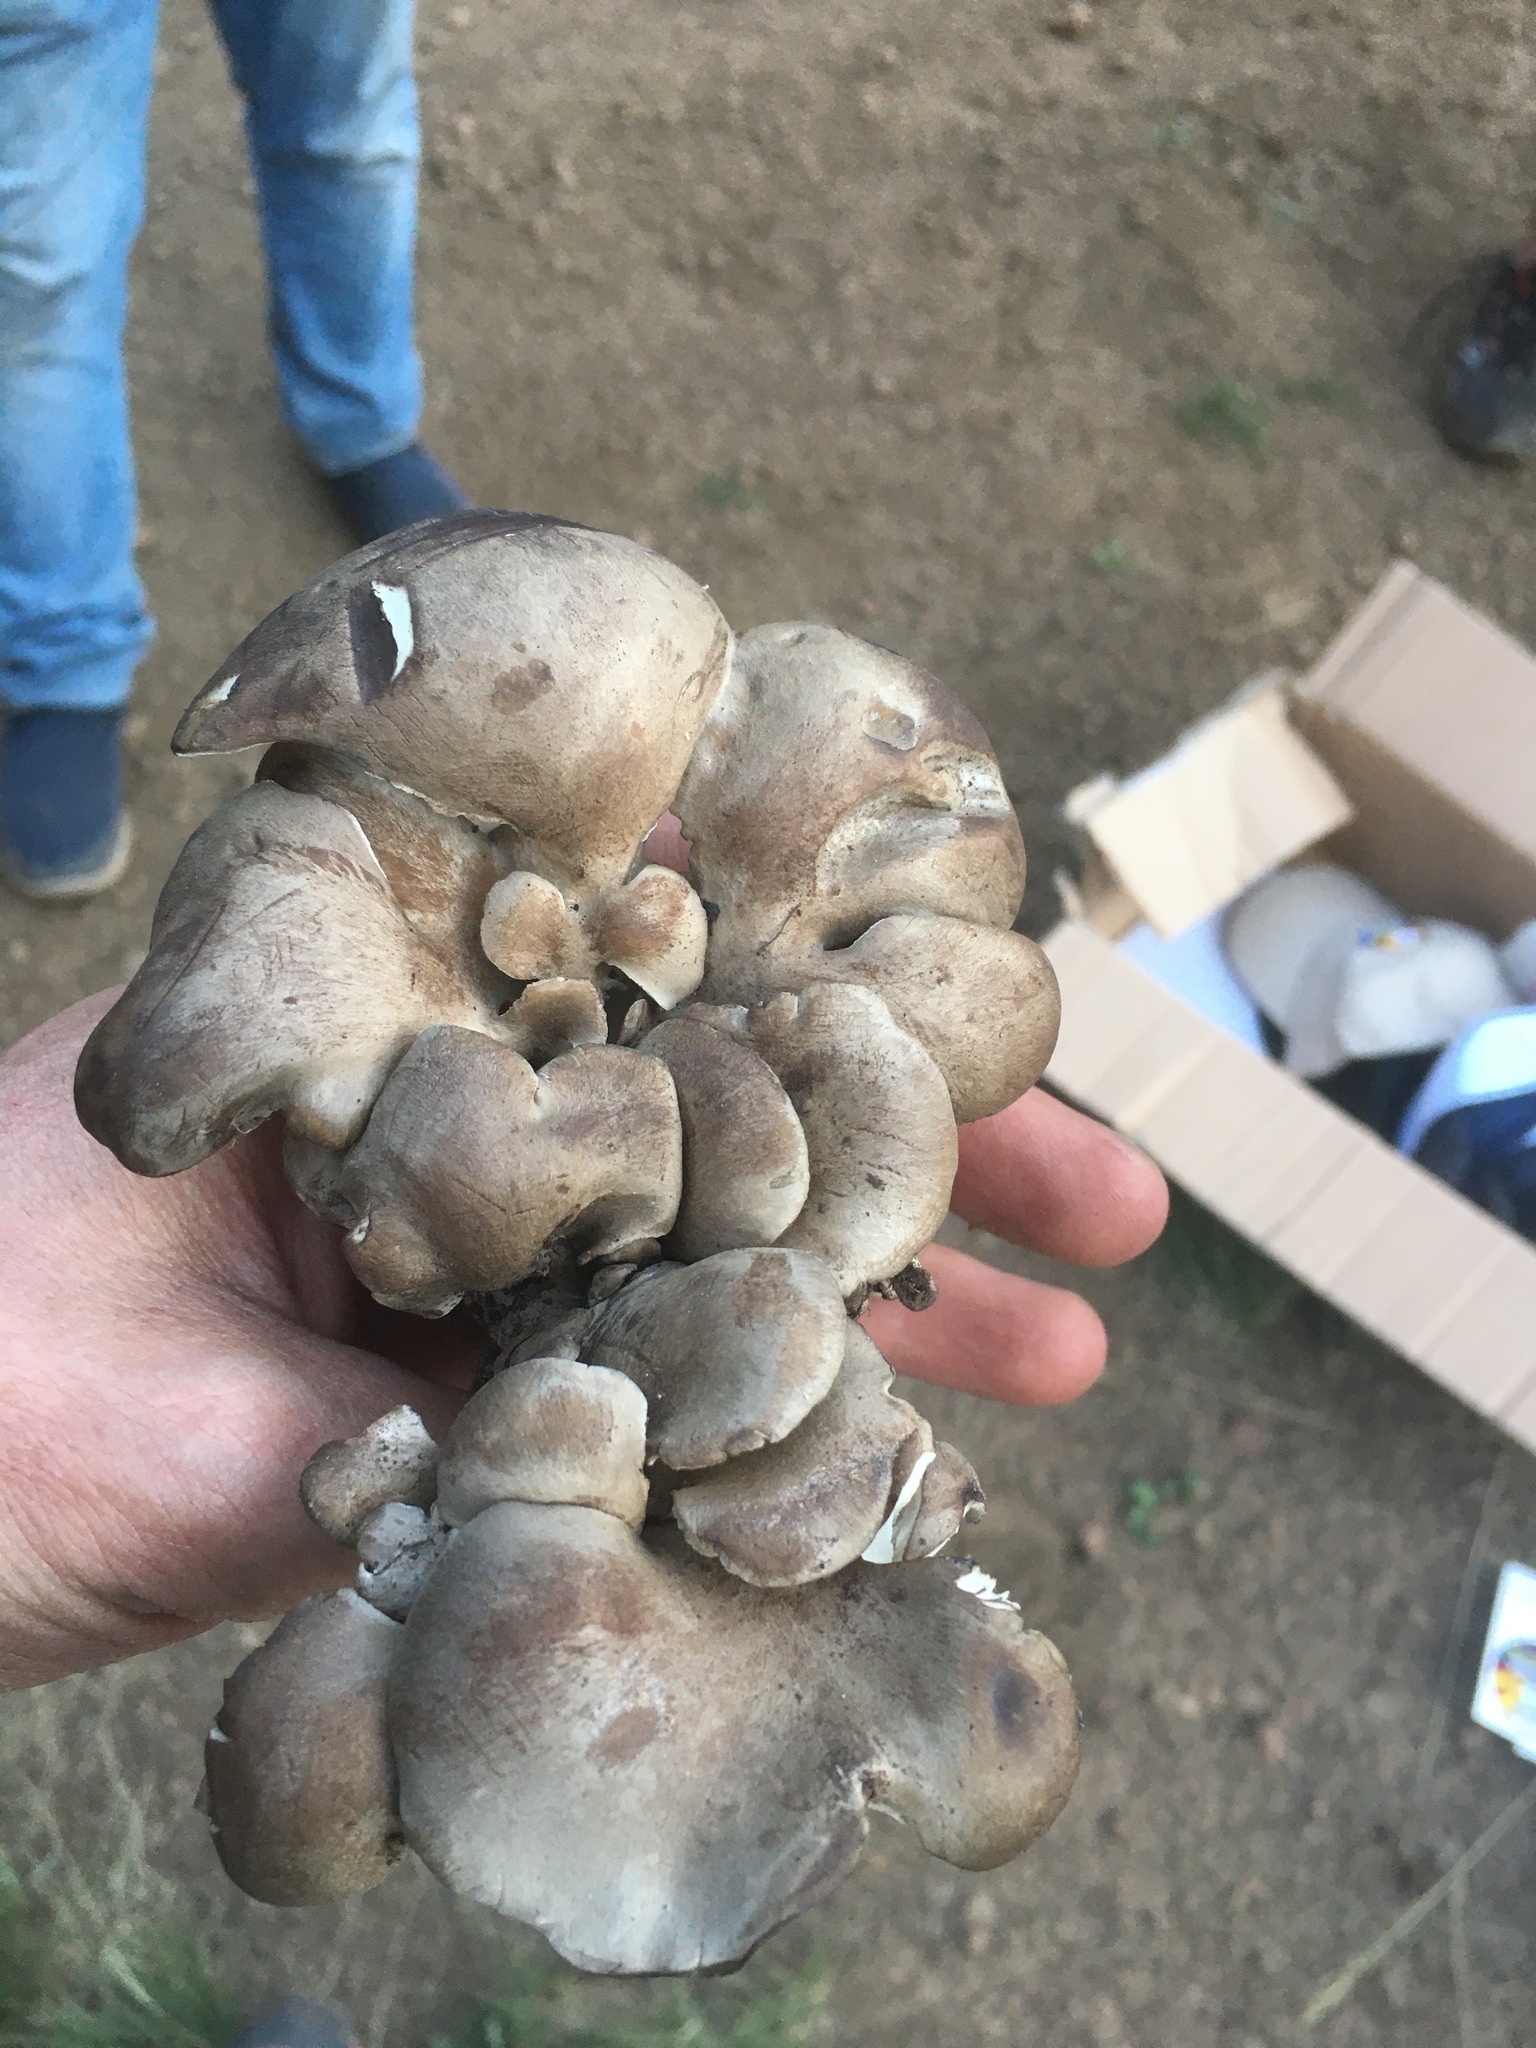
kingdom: Fungi
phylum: Basidiomycota
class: Agaricomycetes
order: Polyporales
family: Dacryobolaceae
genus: Osteina
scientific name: Osteina obducta
